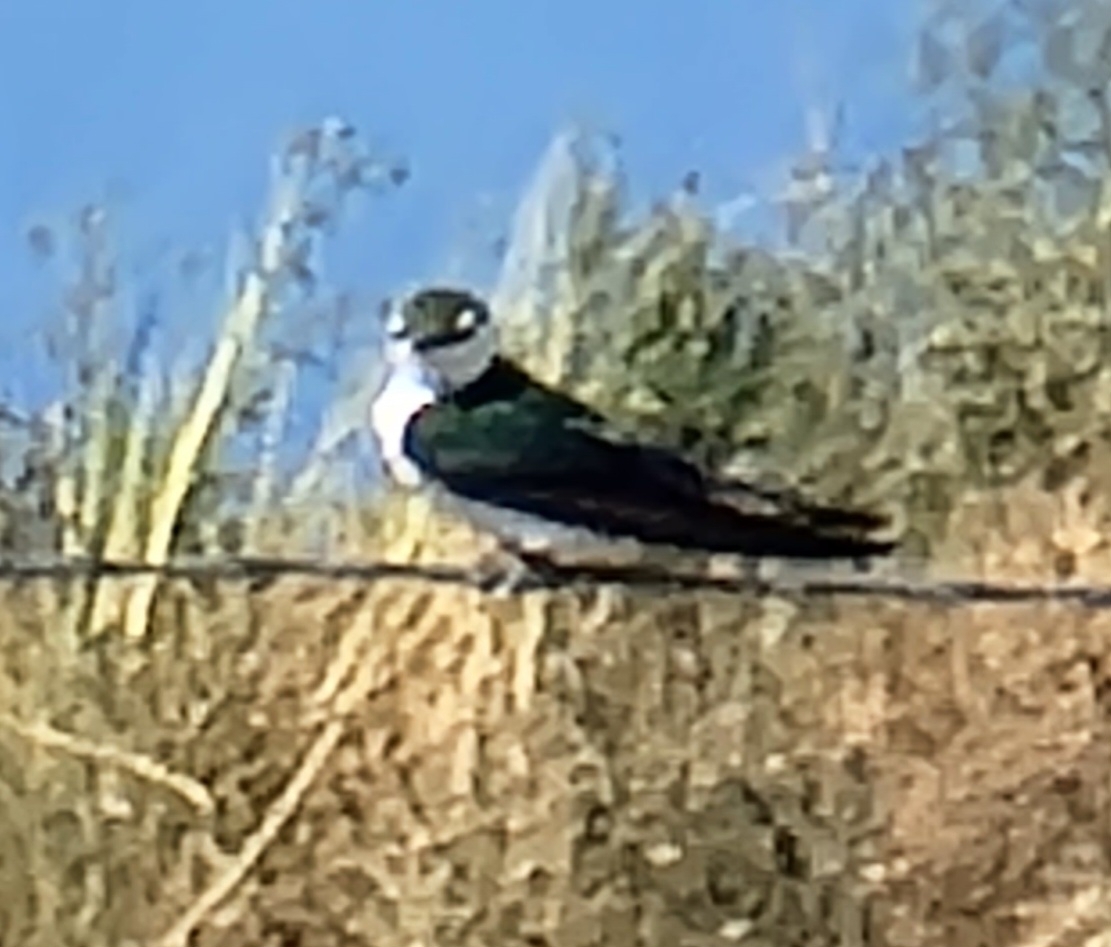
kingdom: Animalia
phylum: Chordata
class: Aves
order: Passeriformes
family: Hirundinidae
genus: Tachycineta
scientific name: Tachycineta thalassina
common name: Violet-green swallow
